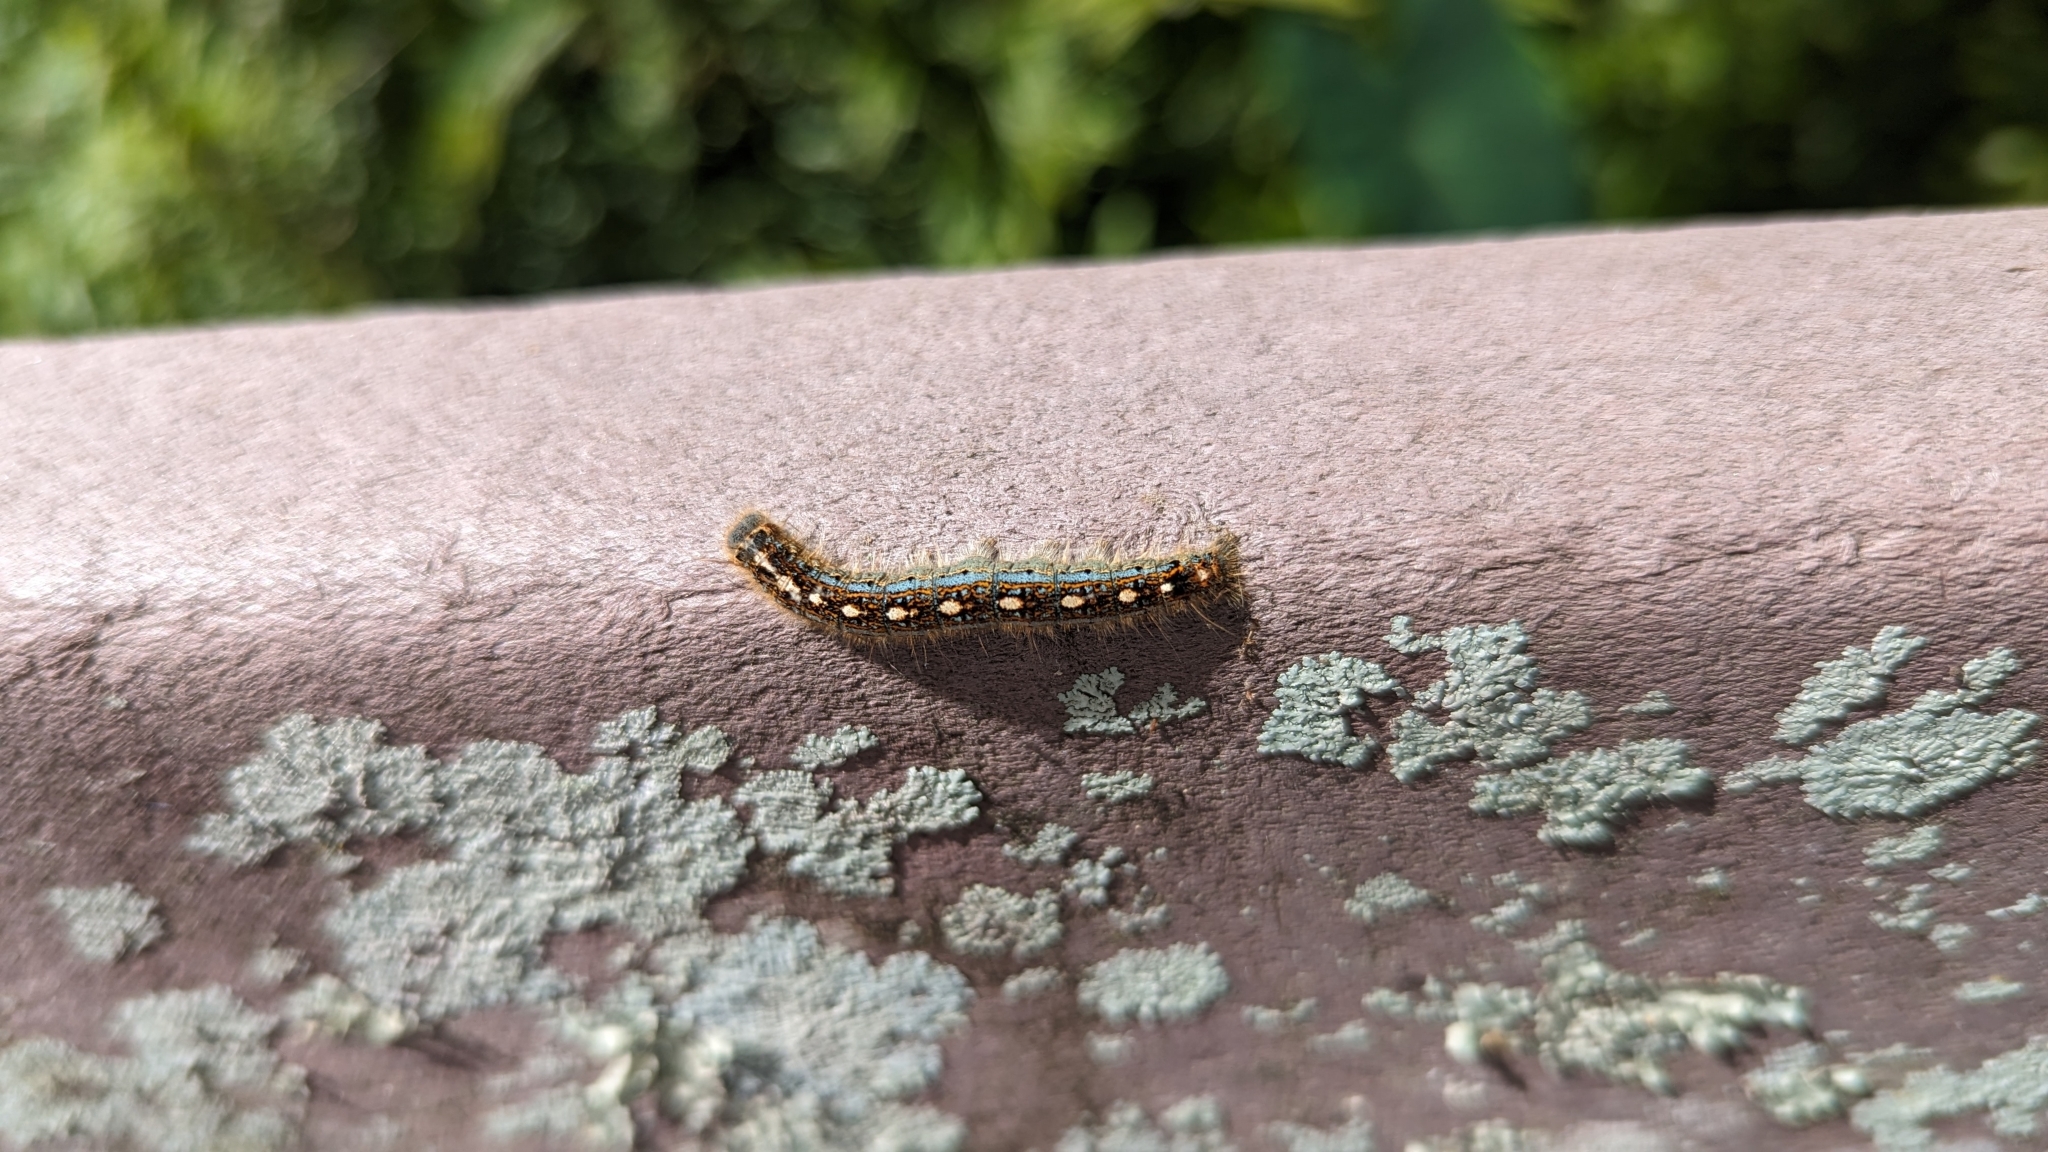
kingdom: Animalia
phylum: Arthropoda
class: Insecta
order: Lepidoptera
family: Lasiocampidae
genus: Malacosoma
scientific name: Malacosoma disstria
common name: Forest tent caterpillar
